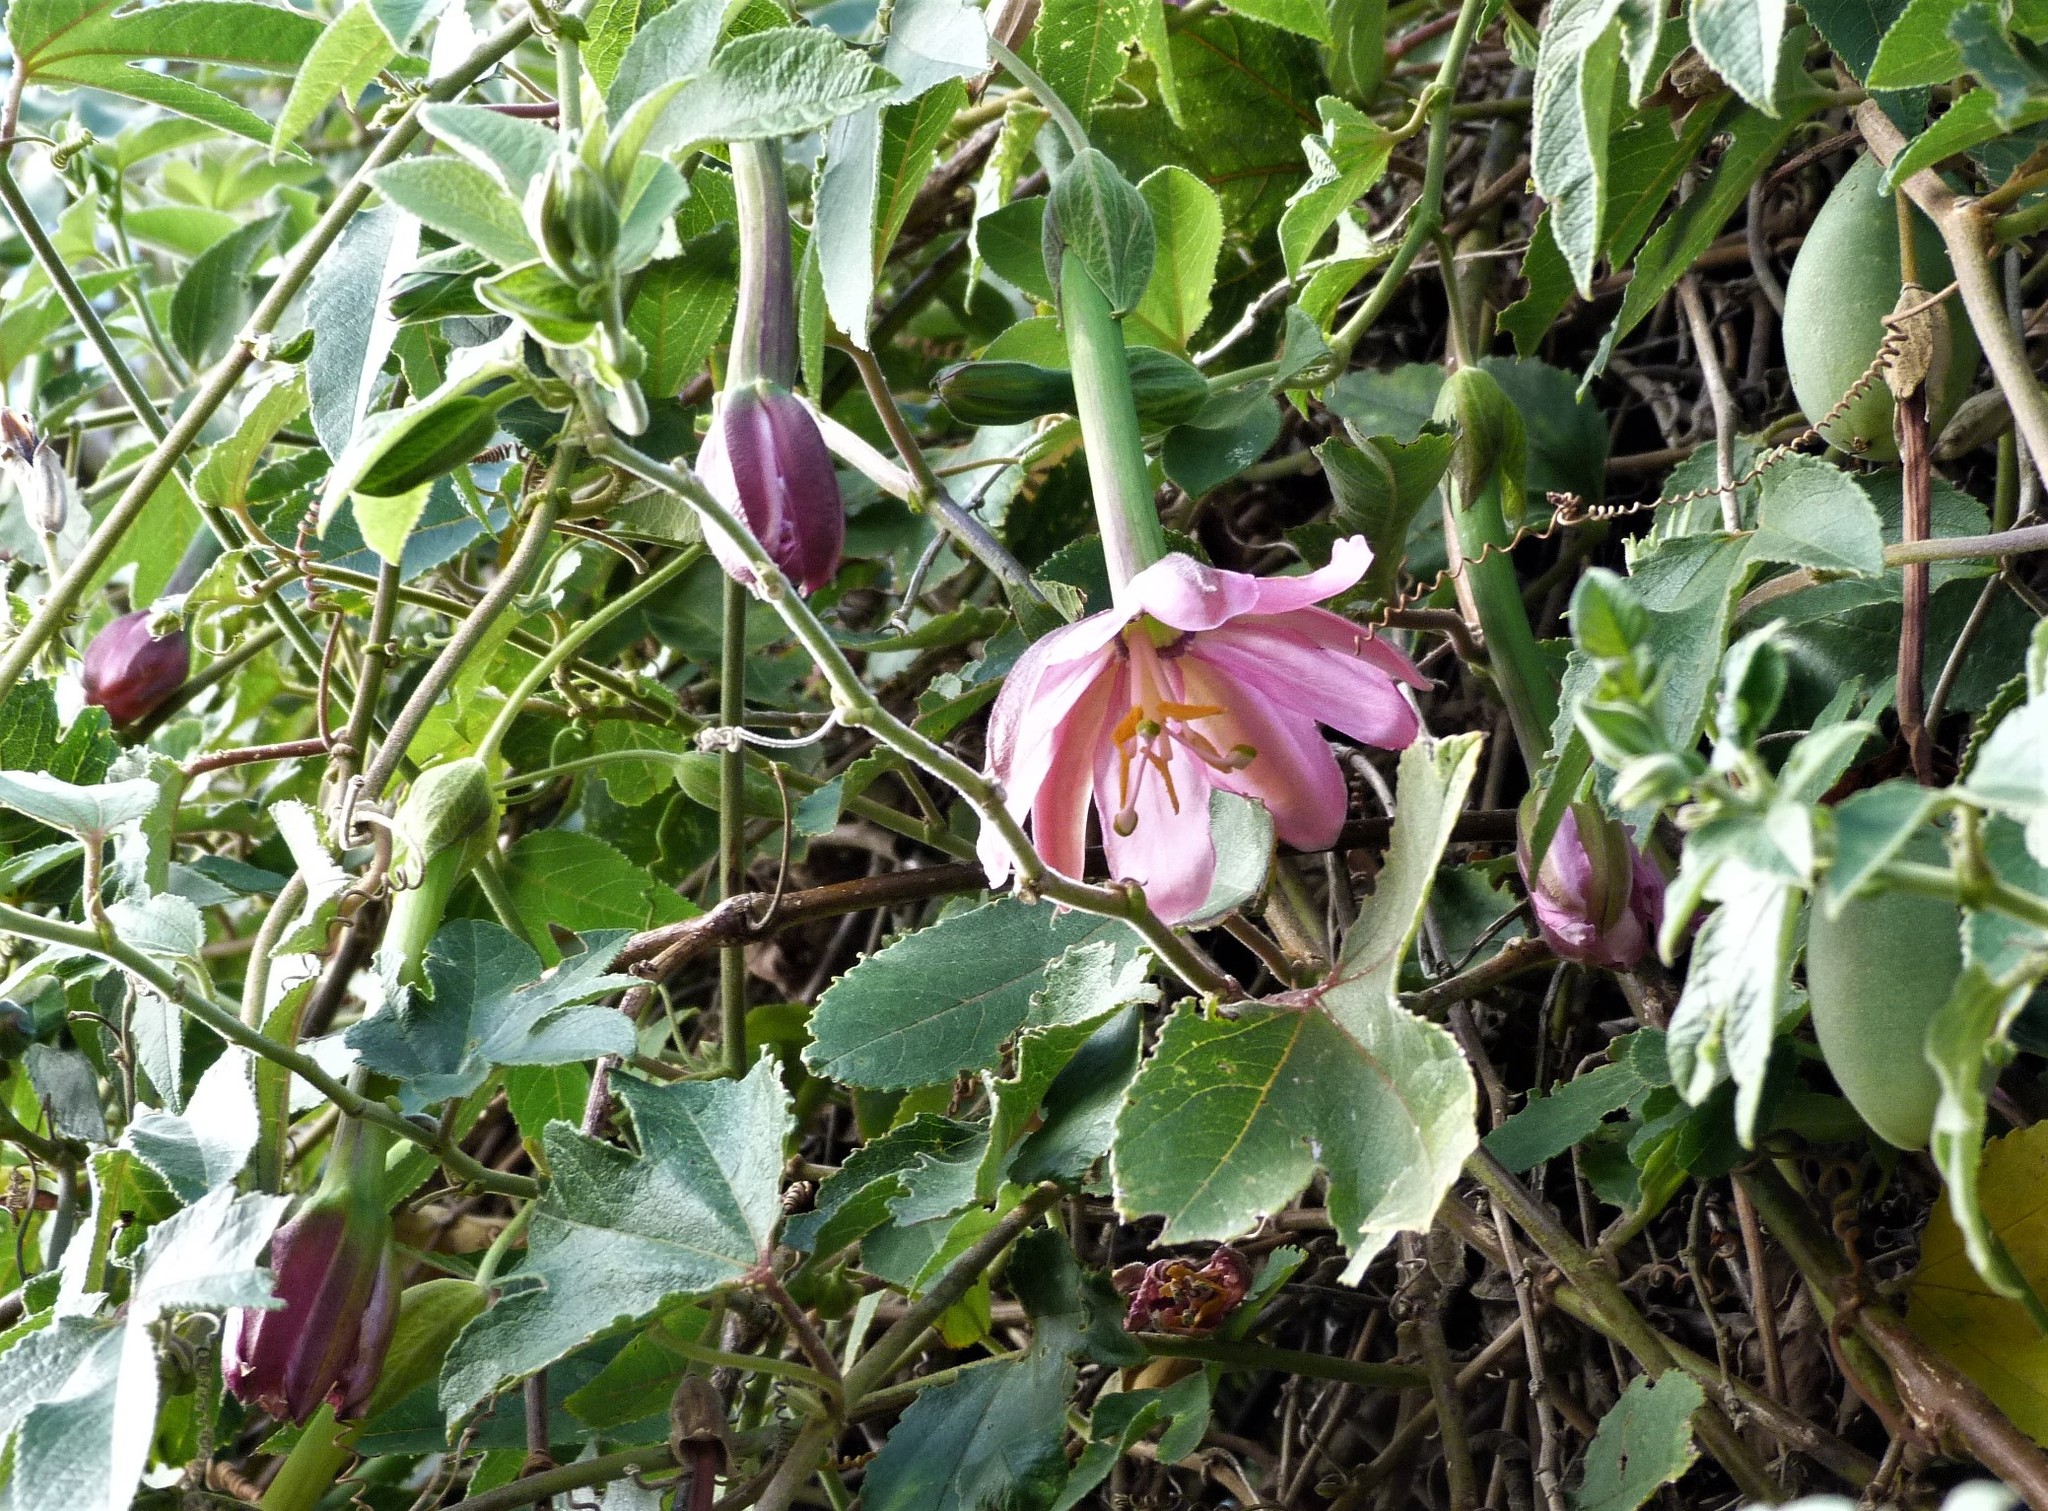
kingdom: Plantae
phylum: Tracheophyta
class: Magnoliopsida
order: Malpighiales
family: Passifloraceae
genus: Passiflora
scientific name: Passiflora tripartita
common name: Banana poka
